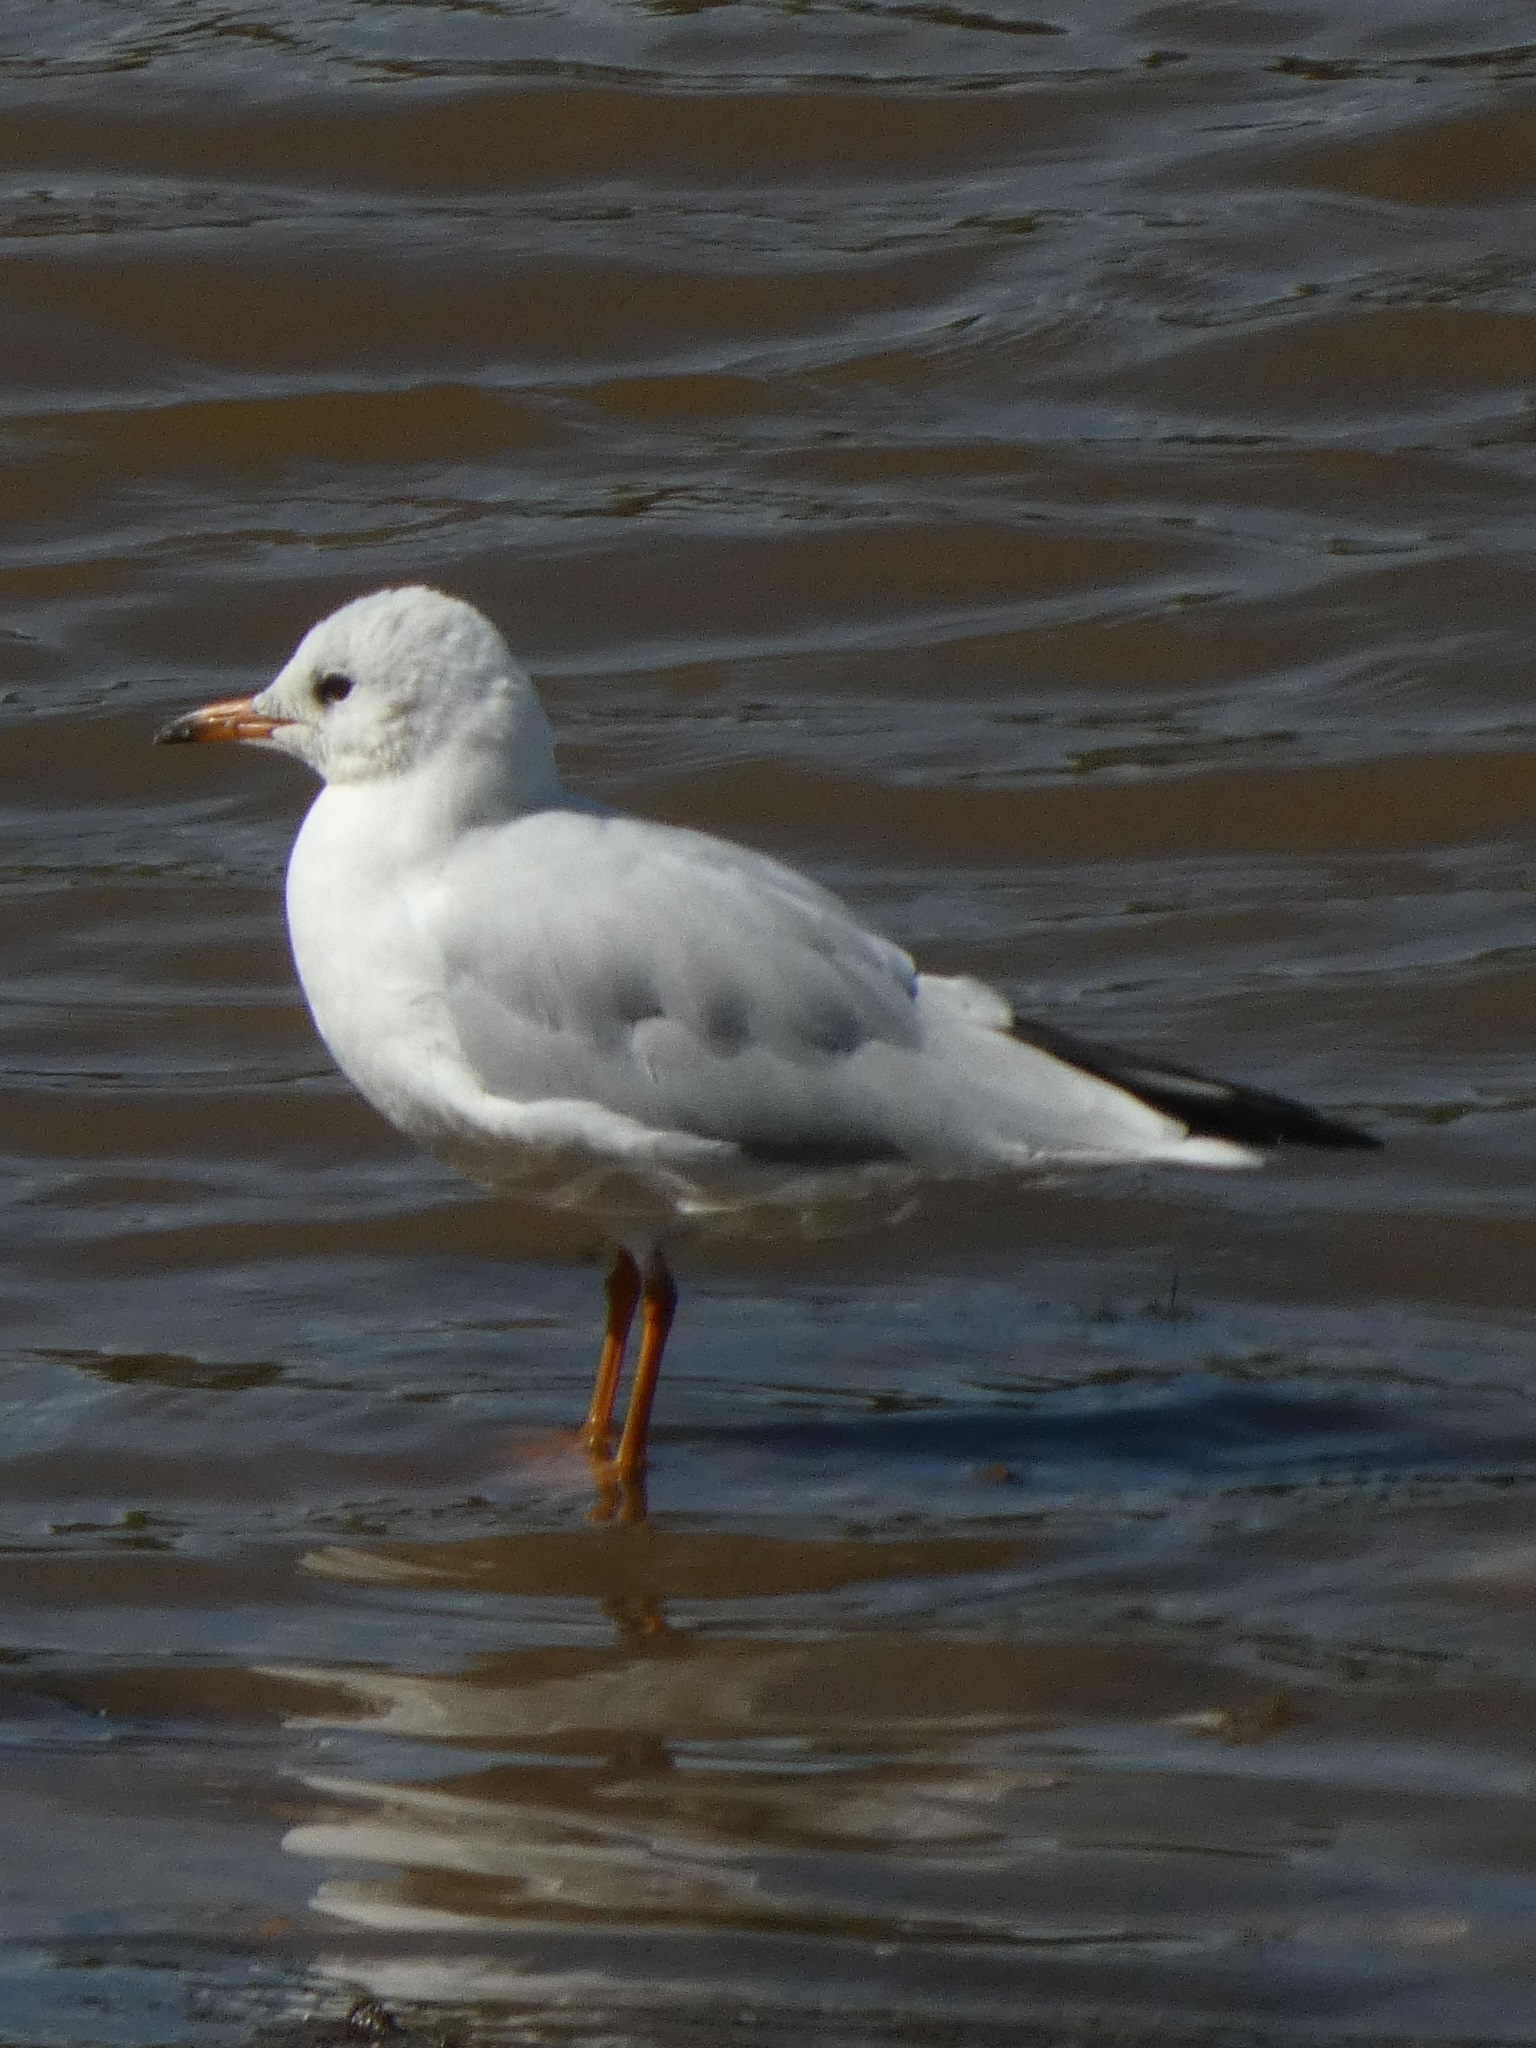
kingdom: Animalia
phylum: Chordata
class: Aves
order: Charadriiformes
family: Laridae
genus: Chroicocephalus
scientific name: Chroicocephalus ridibundus
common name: Black-headed gull
